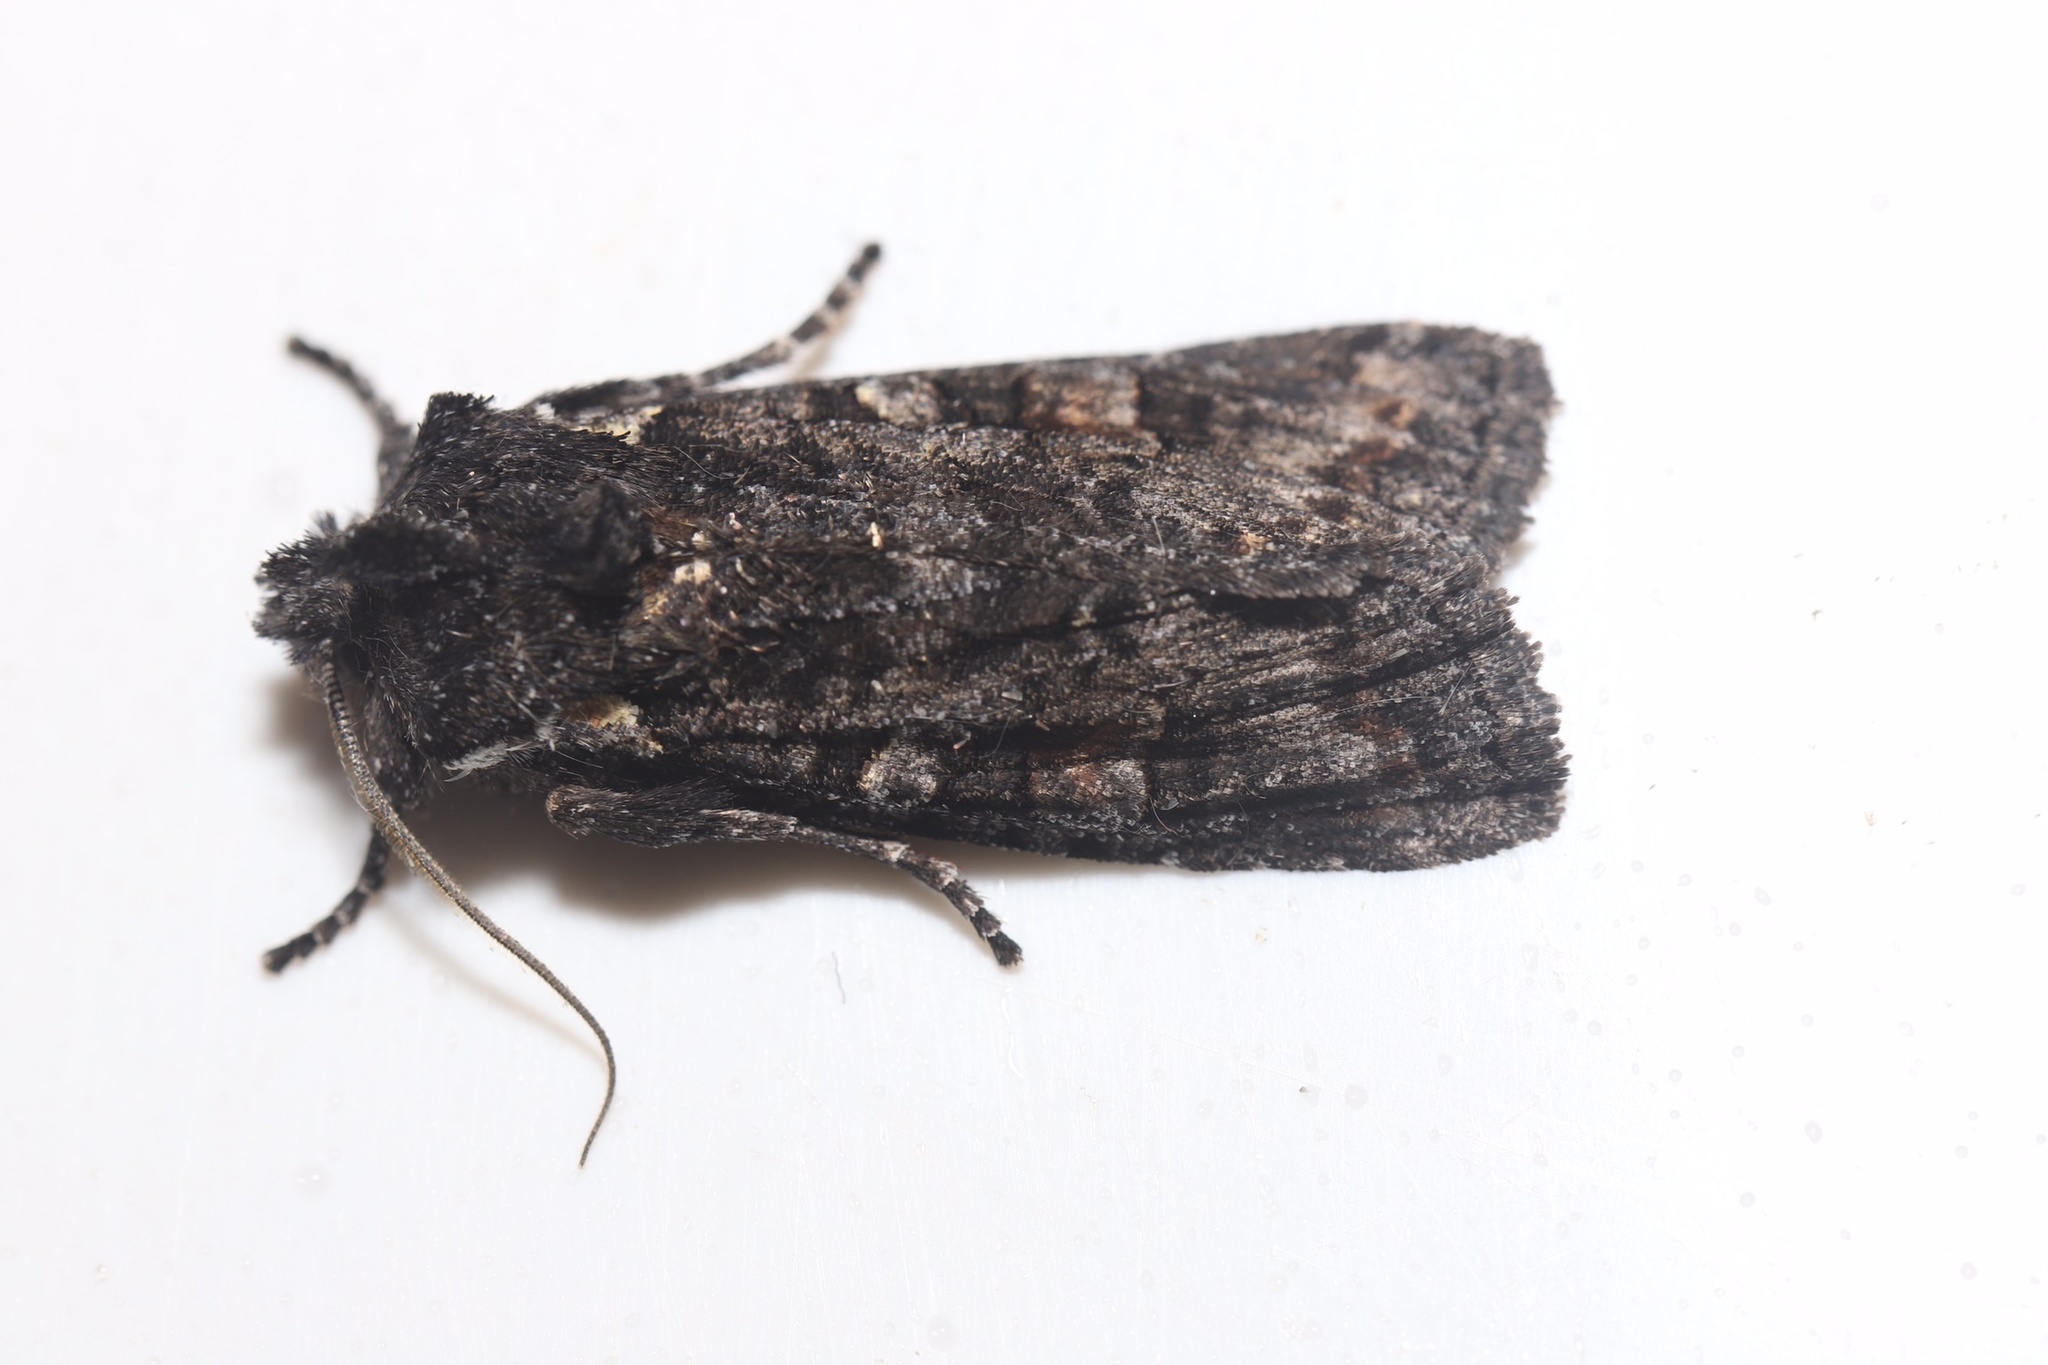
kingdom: Animalia
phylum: Arthropoda
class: Insecta
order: Lepidoptera
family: Noctuidae
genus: Lithophane
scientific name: Lithophane pexata
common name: Plush-naped pinion moth
